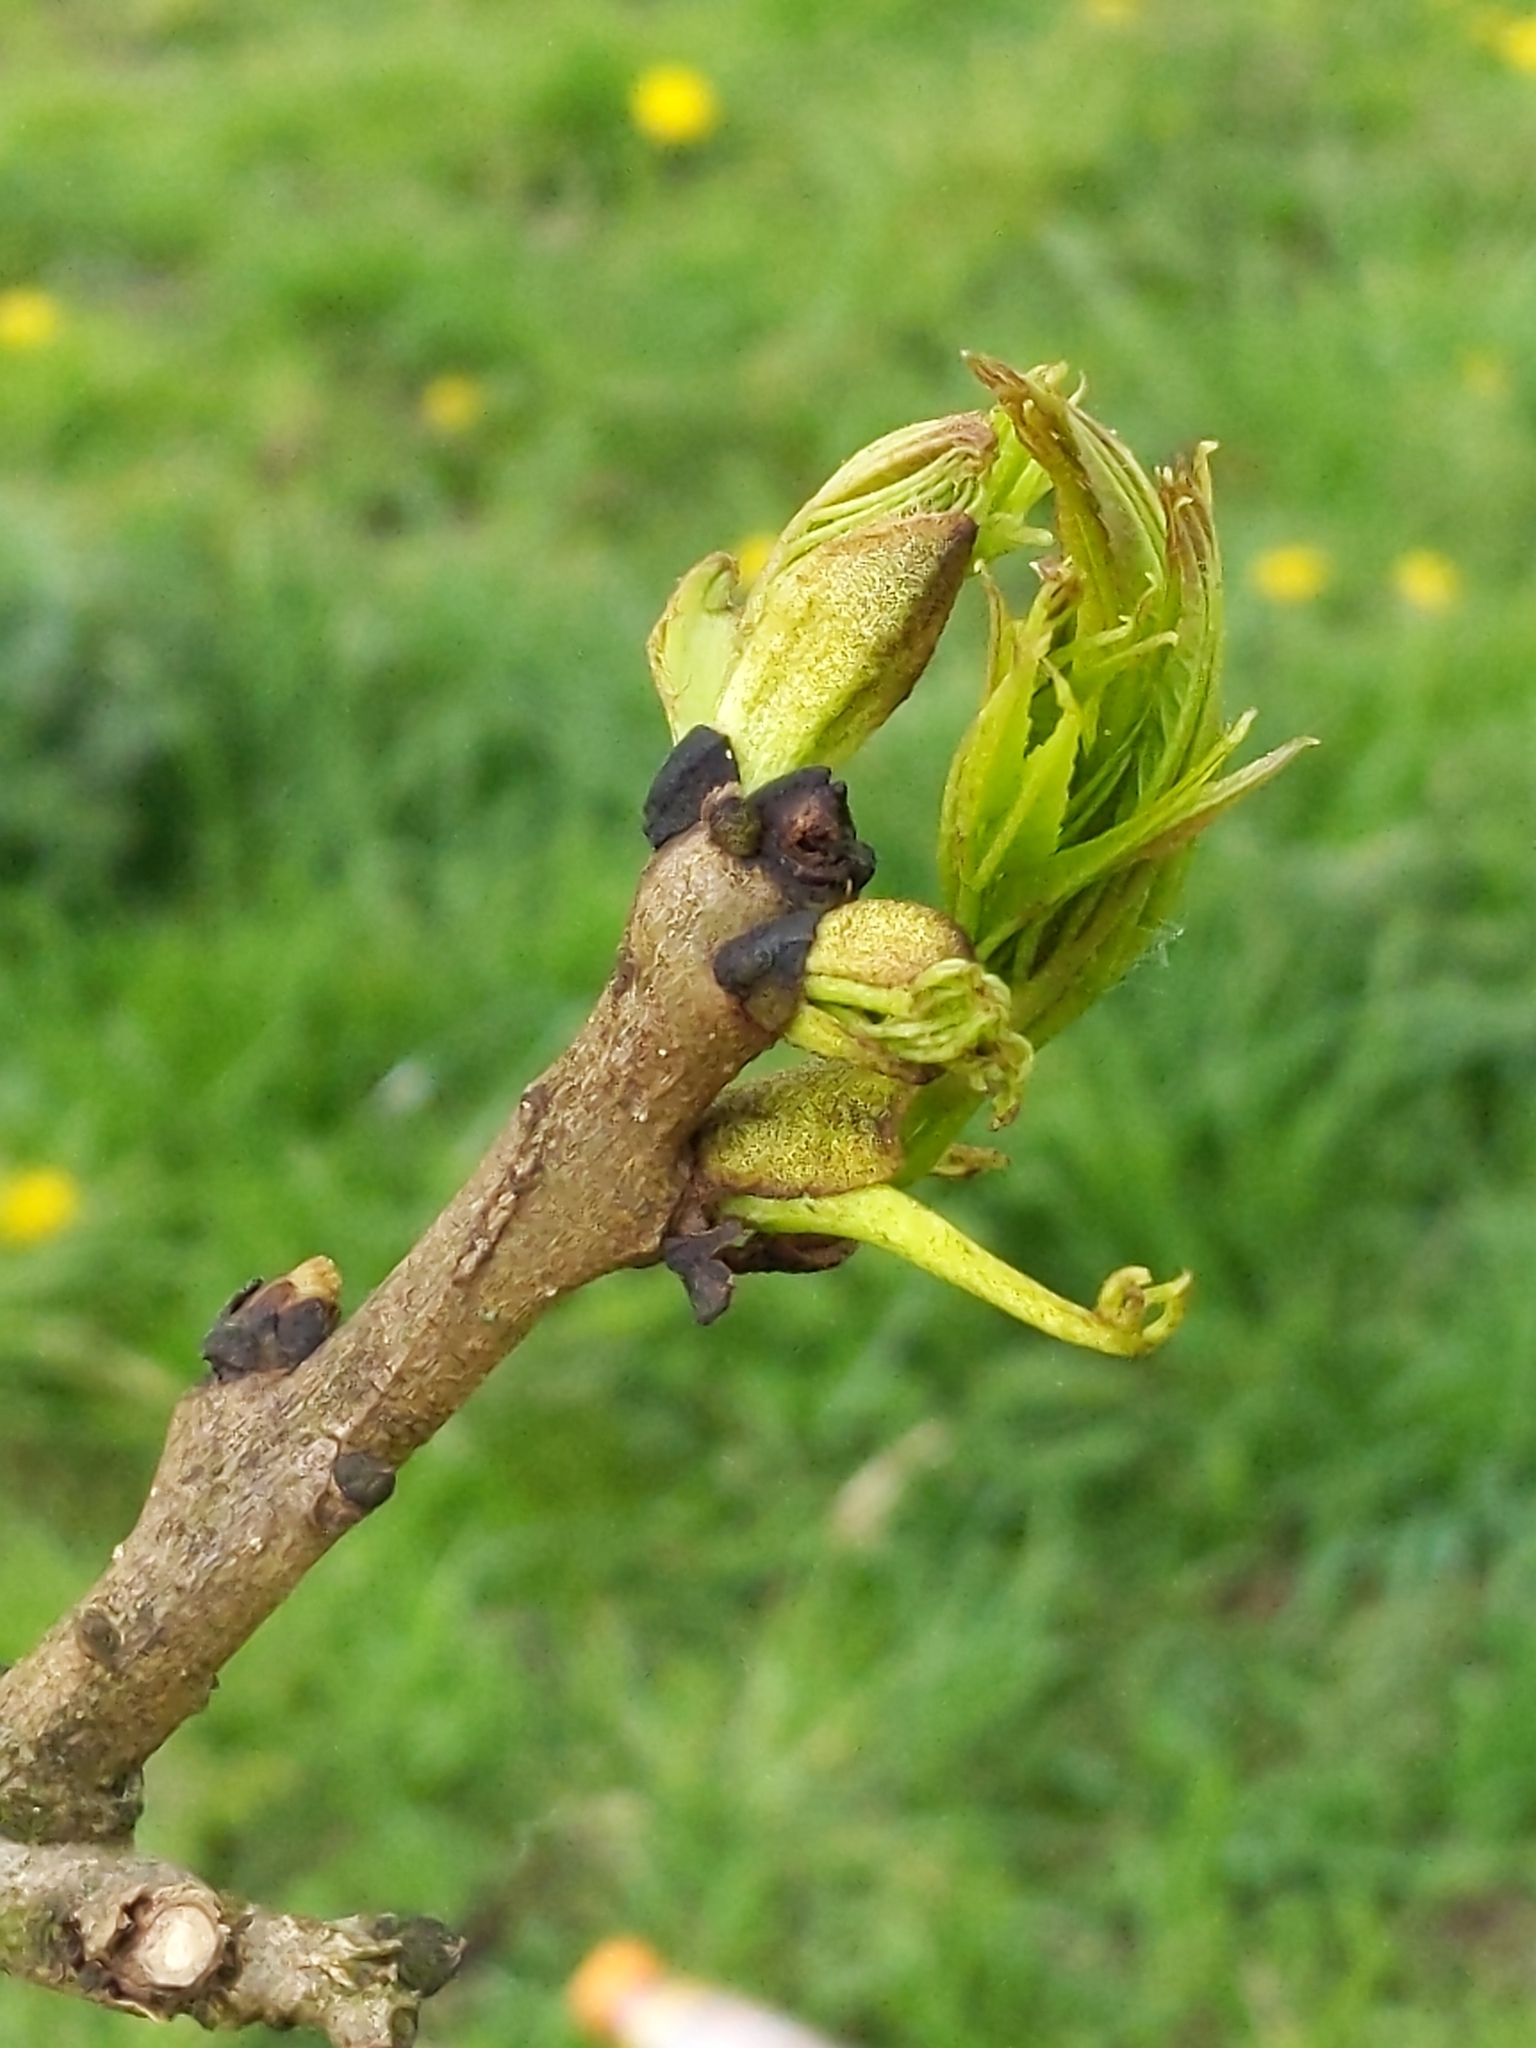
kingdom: Plantae
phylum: Tracheophyta
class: Magnoliopsida
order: Lamiales
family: Oleaceae
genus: Fraxinus
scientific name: Fraxinus excelsior
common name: European ash
